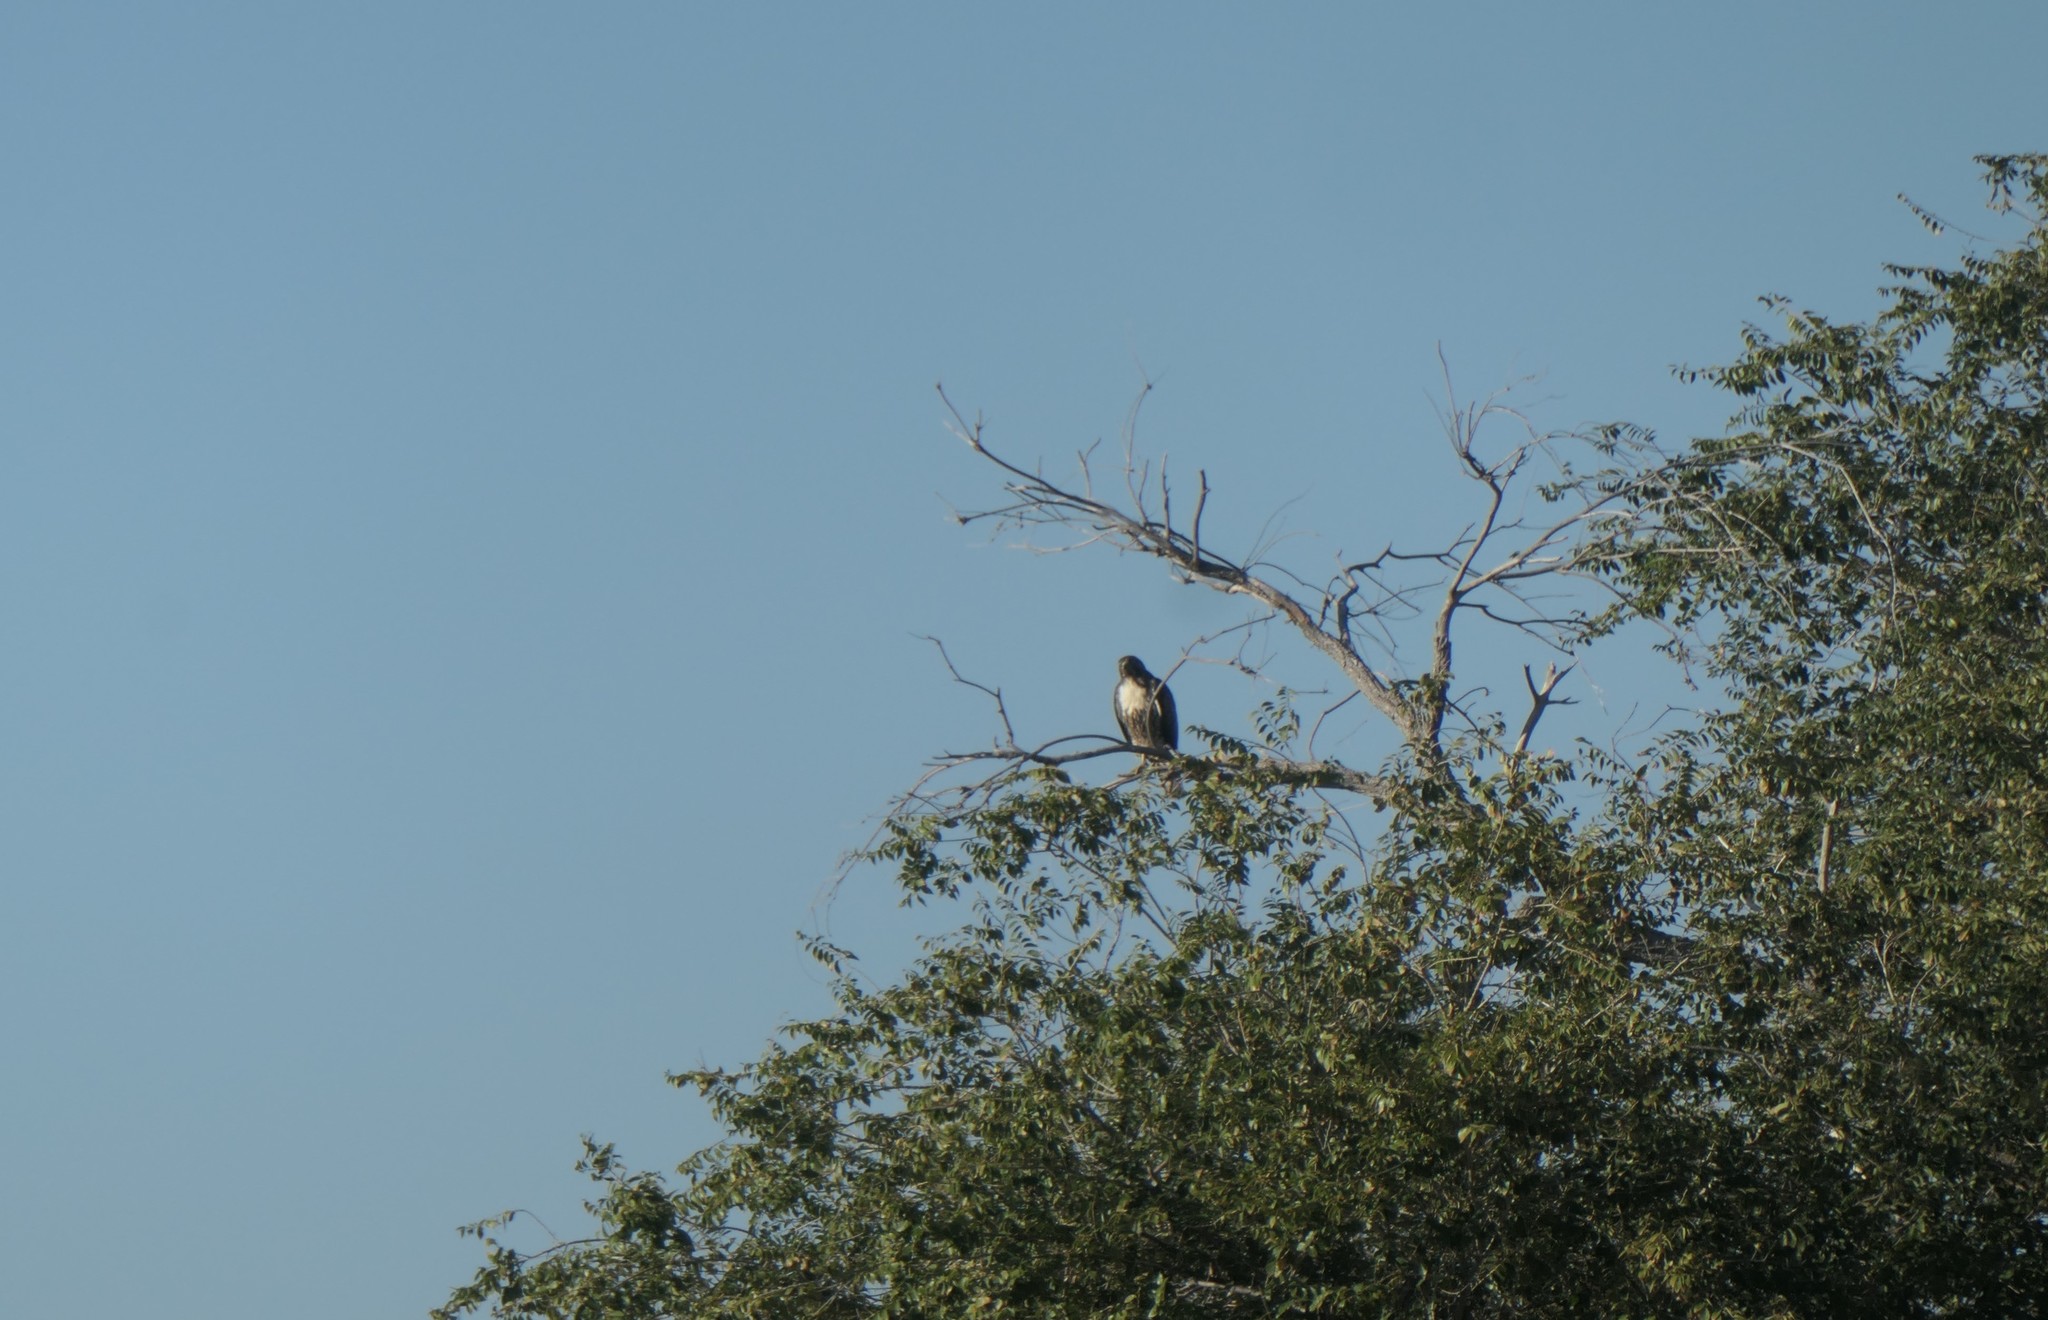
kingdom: Animalia
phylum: Chordata
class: Aves
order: Accipitriformes
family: Accipitridae
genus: Buteo
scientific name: Buteo jamaicensis
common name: Red-tailed hawk
